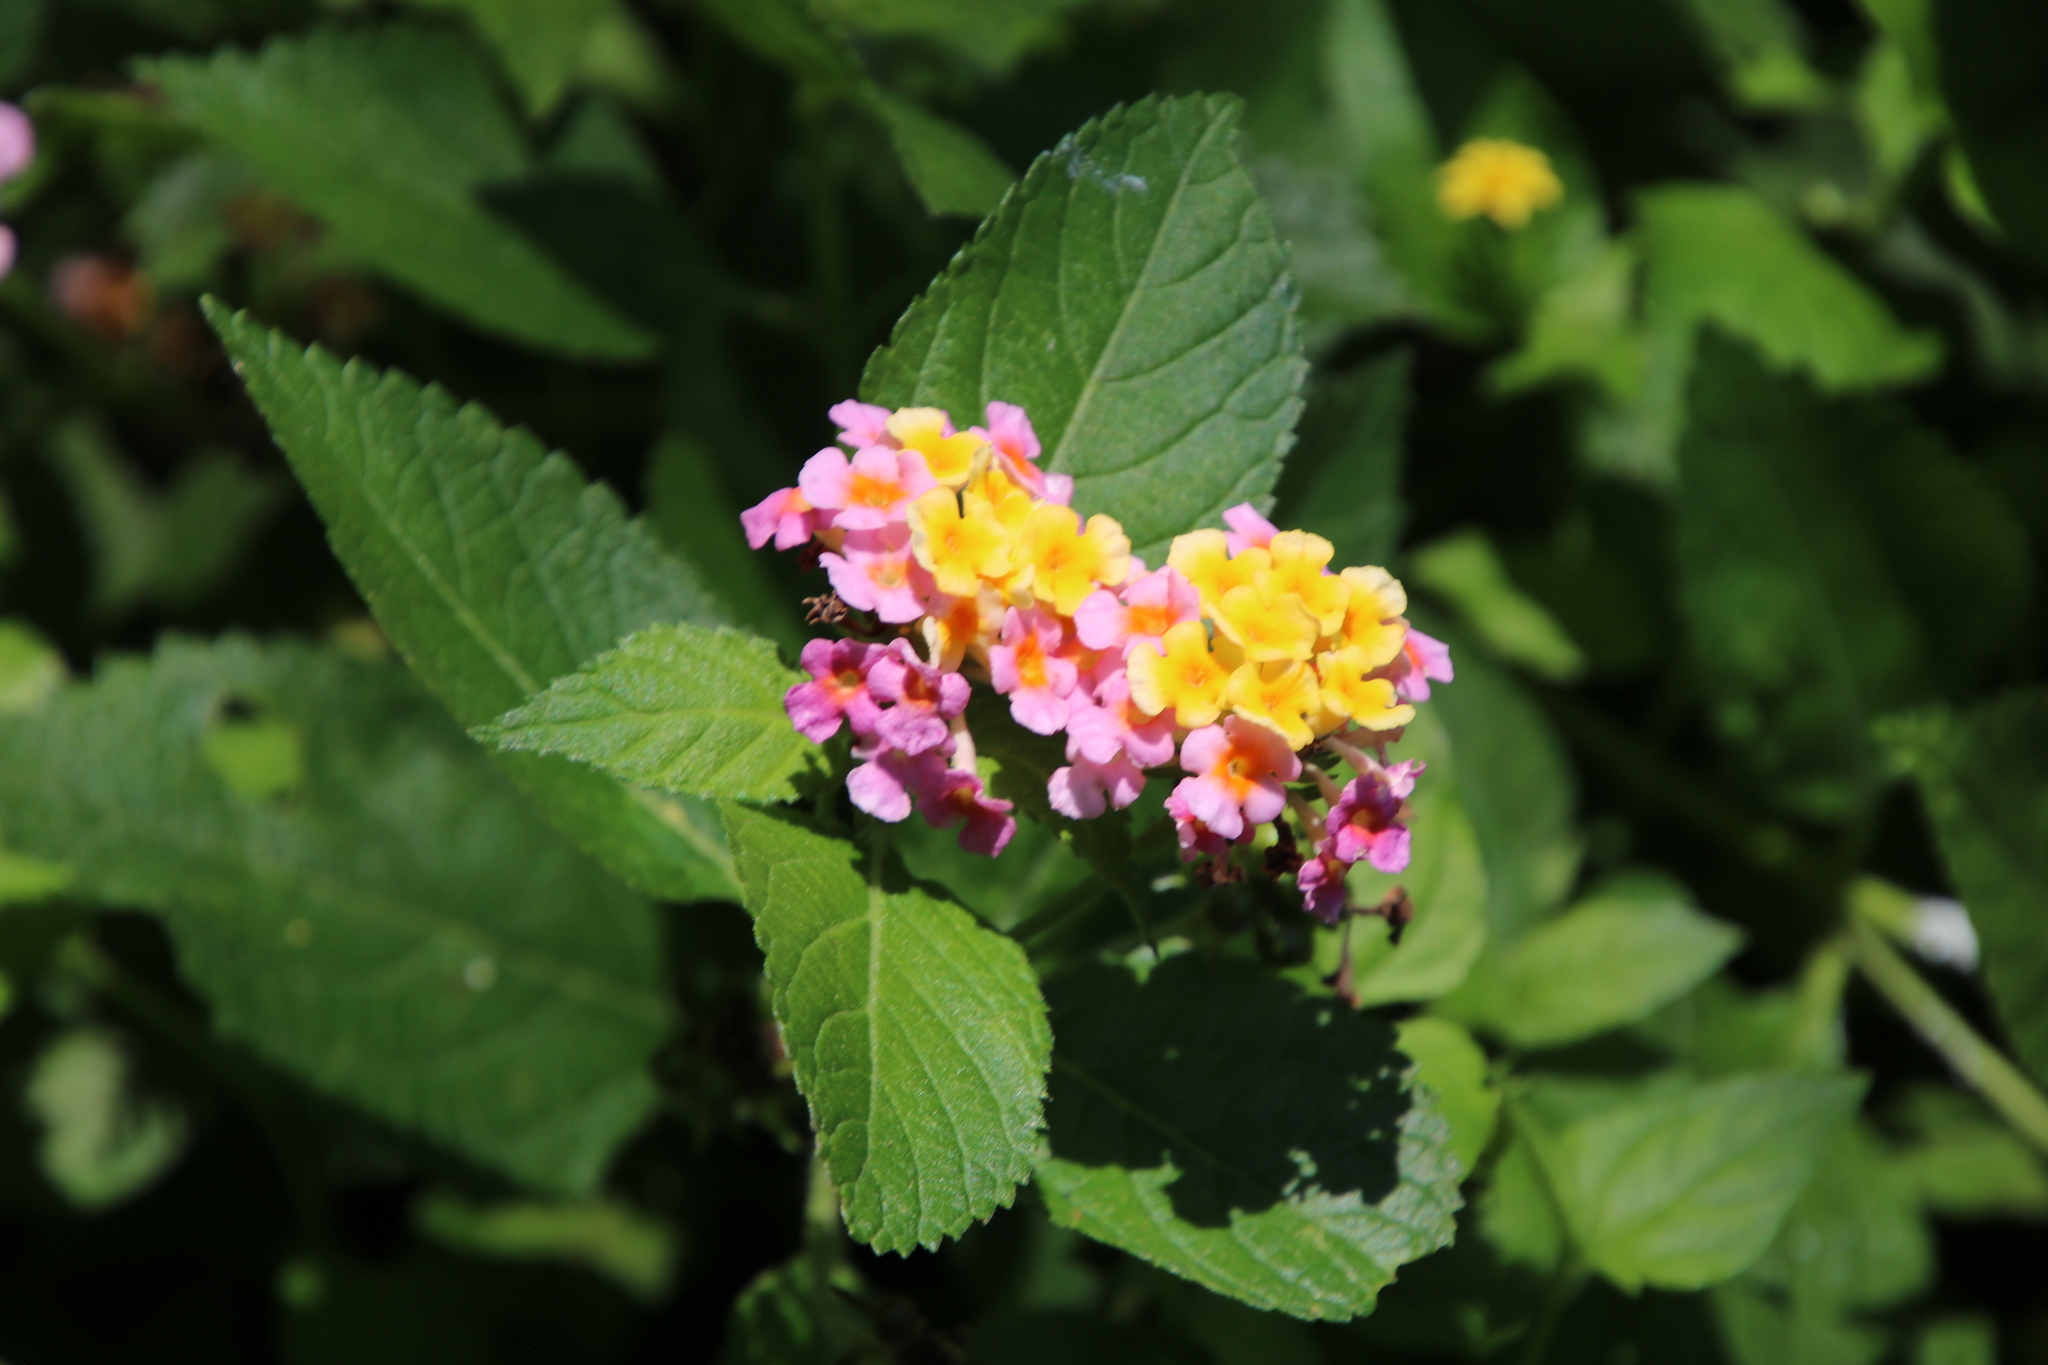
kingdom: Plantae
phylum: Tracheophyta
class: Magnoliopsida
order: Lamiales
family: Verbenaceae
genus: Lantana
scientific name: Lantana strigocamara
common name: Lantana
